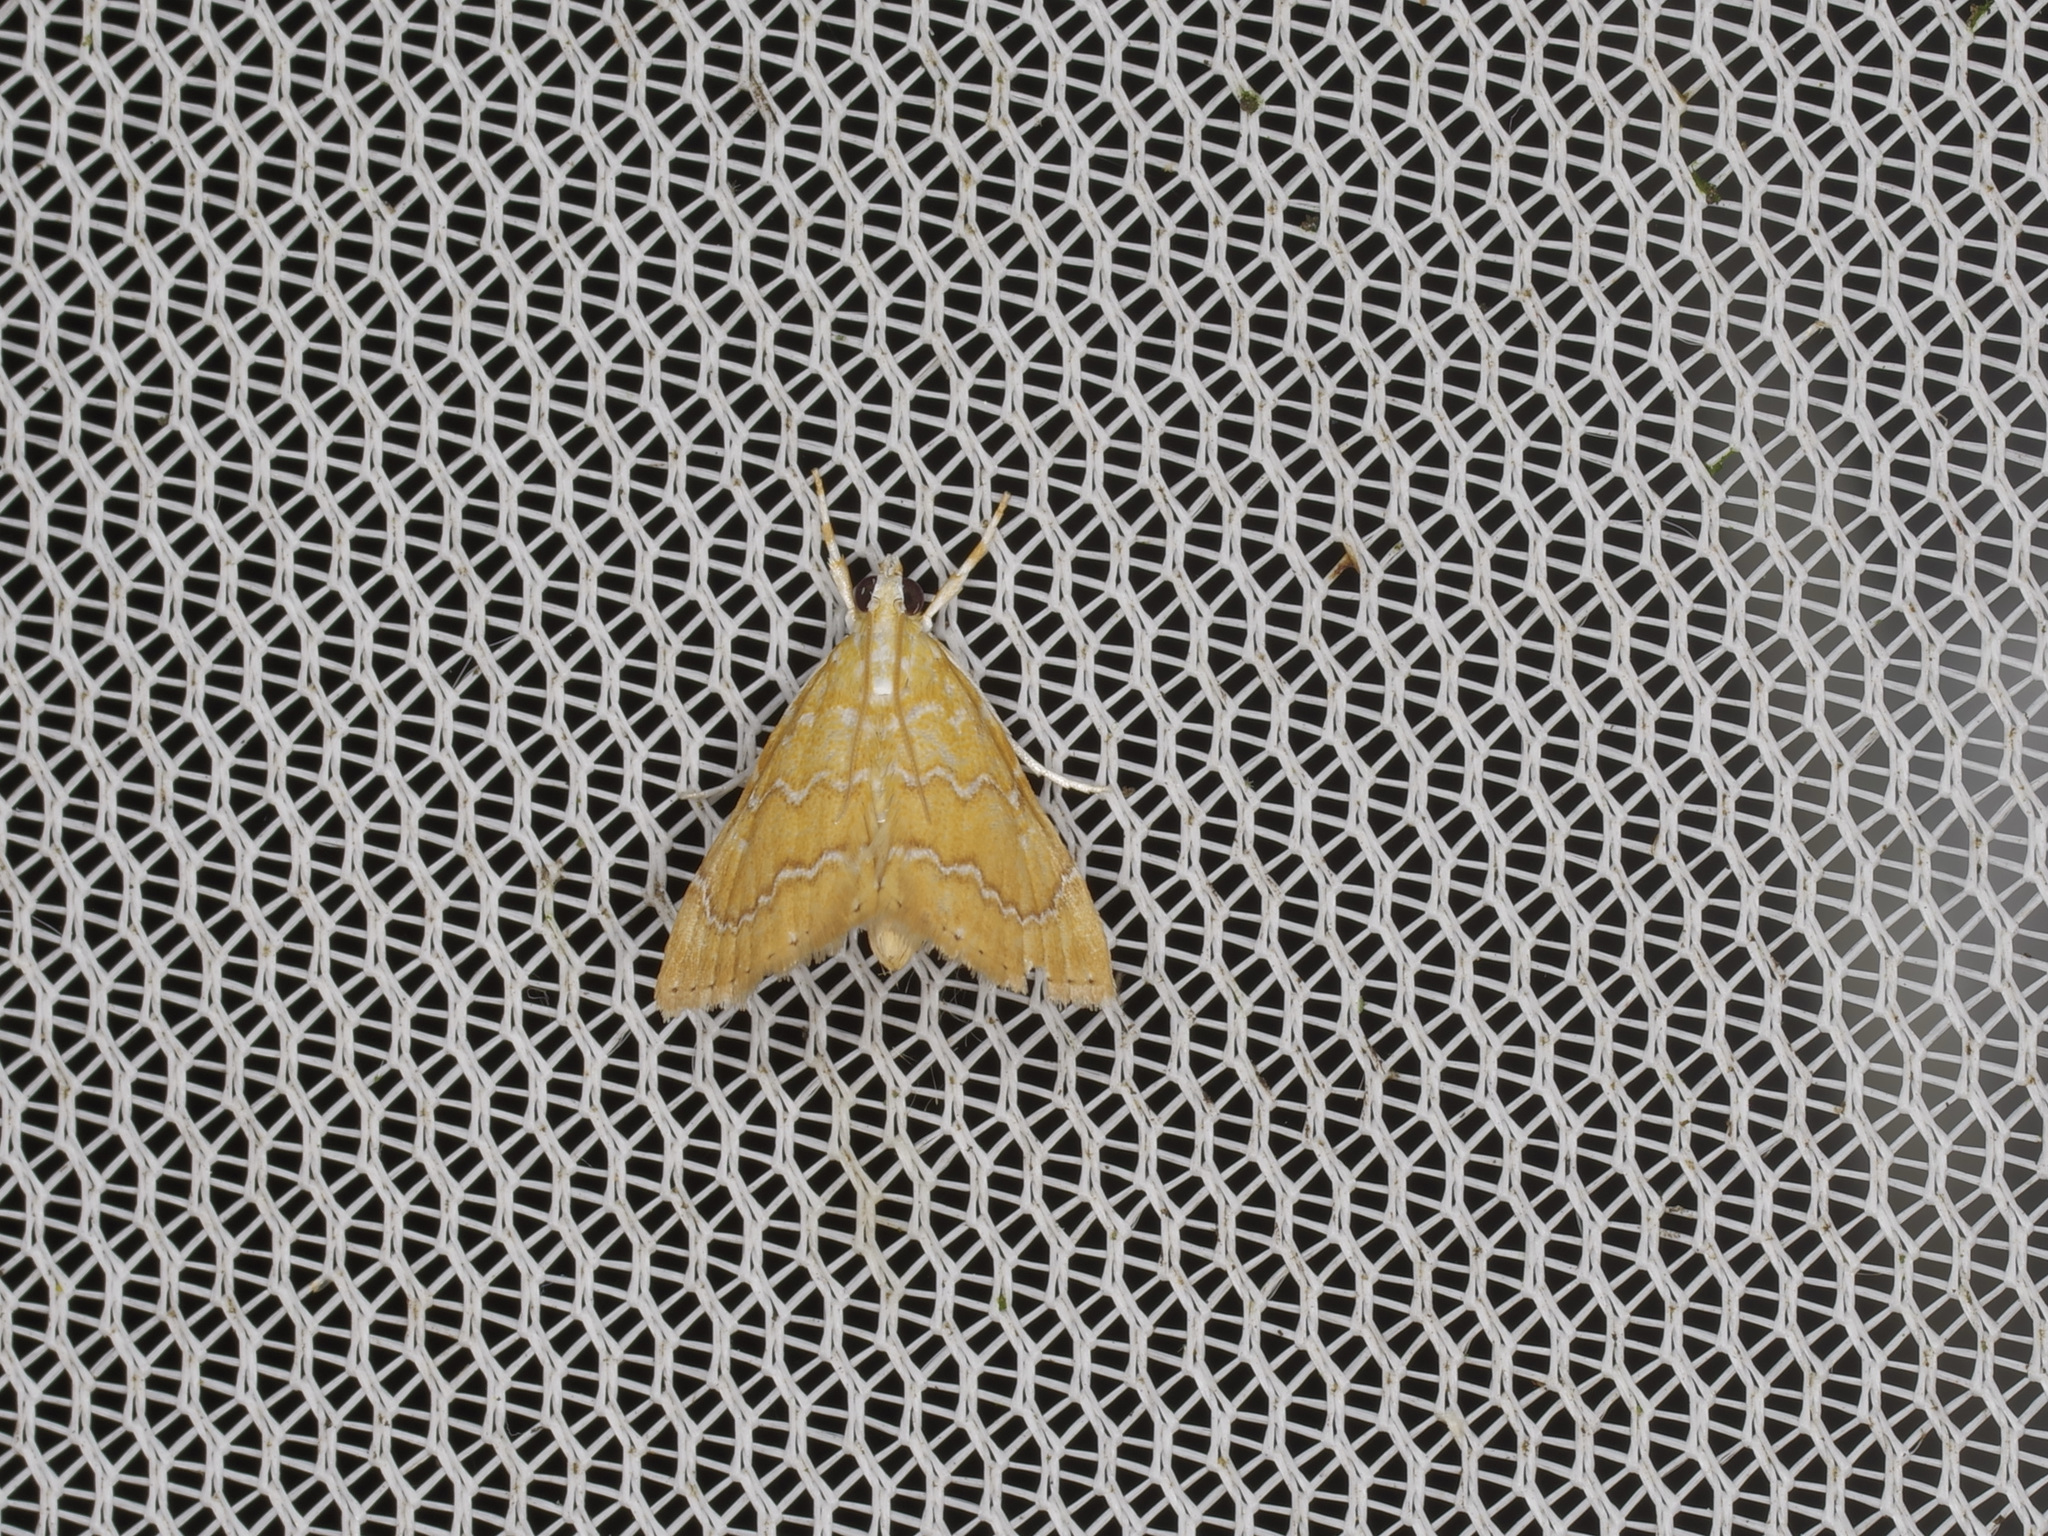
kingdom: Animalia
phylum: Arthropoda
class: Insecta
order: Lepidoptera
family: Crambidae
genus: Glaphyria
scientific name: Glaphyria sesquistrialis
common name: White-roped glaphyria
